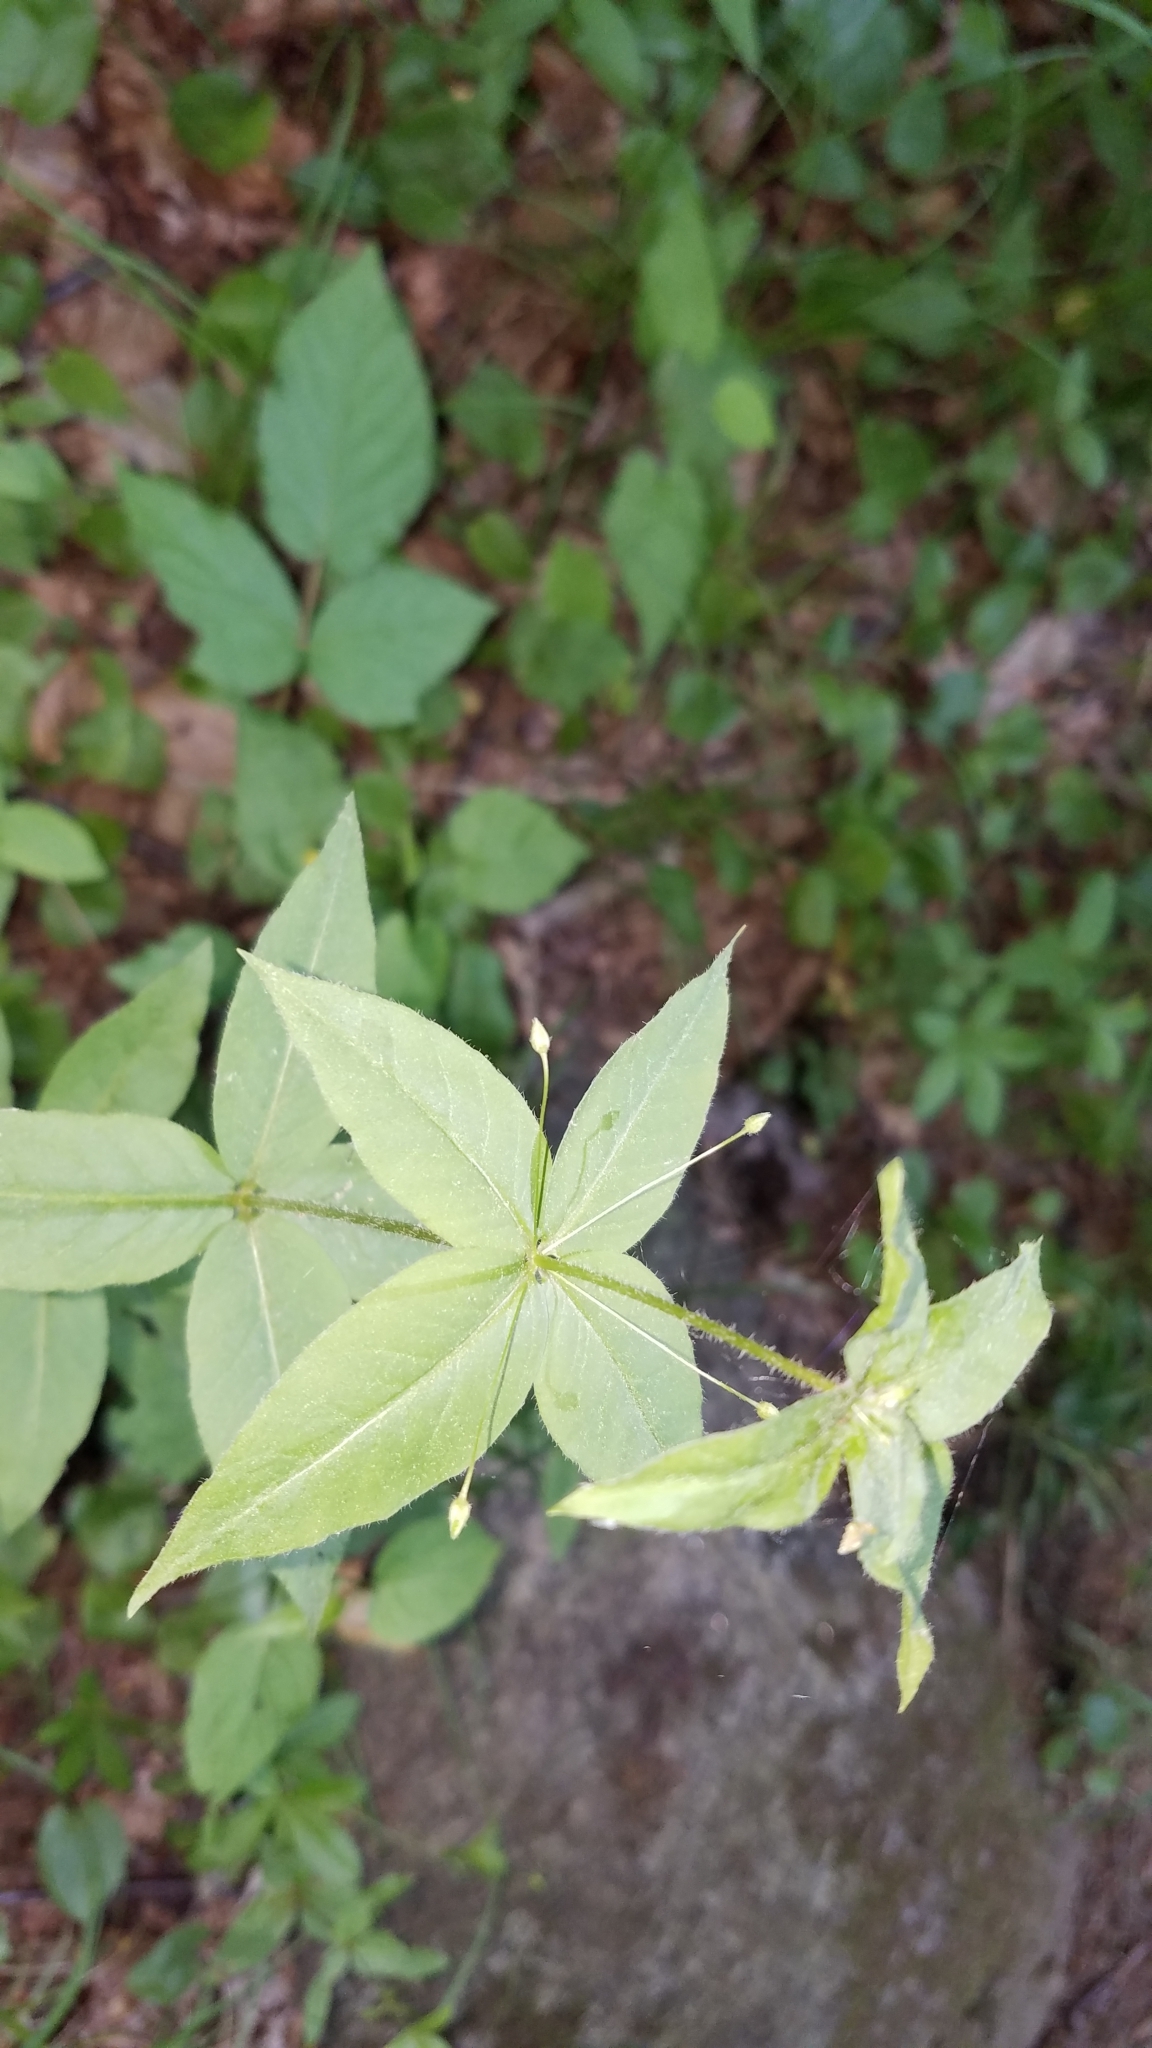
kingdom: Plantae
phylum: Tracheophyta
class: Magnoliopsida
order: Ericales
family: Primulaceae
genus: Lysimachia
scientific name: Lysimachia quadrifolia
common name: Whorled loosestrife
